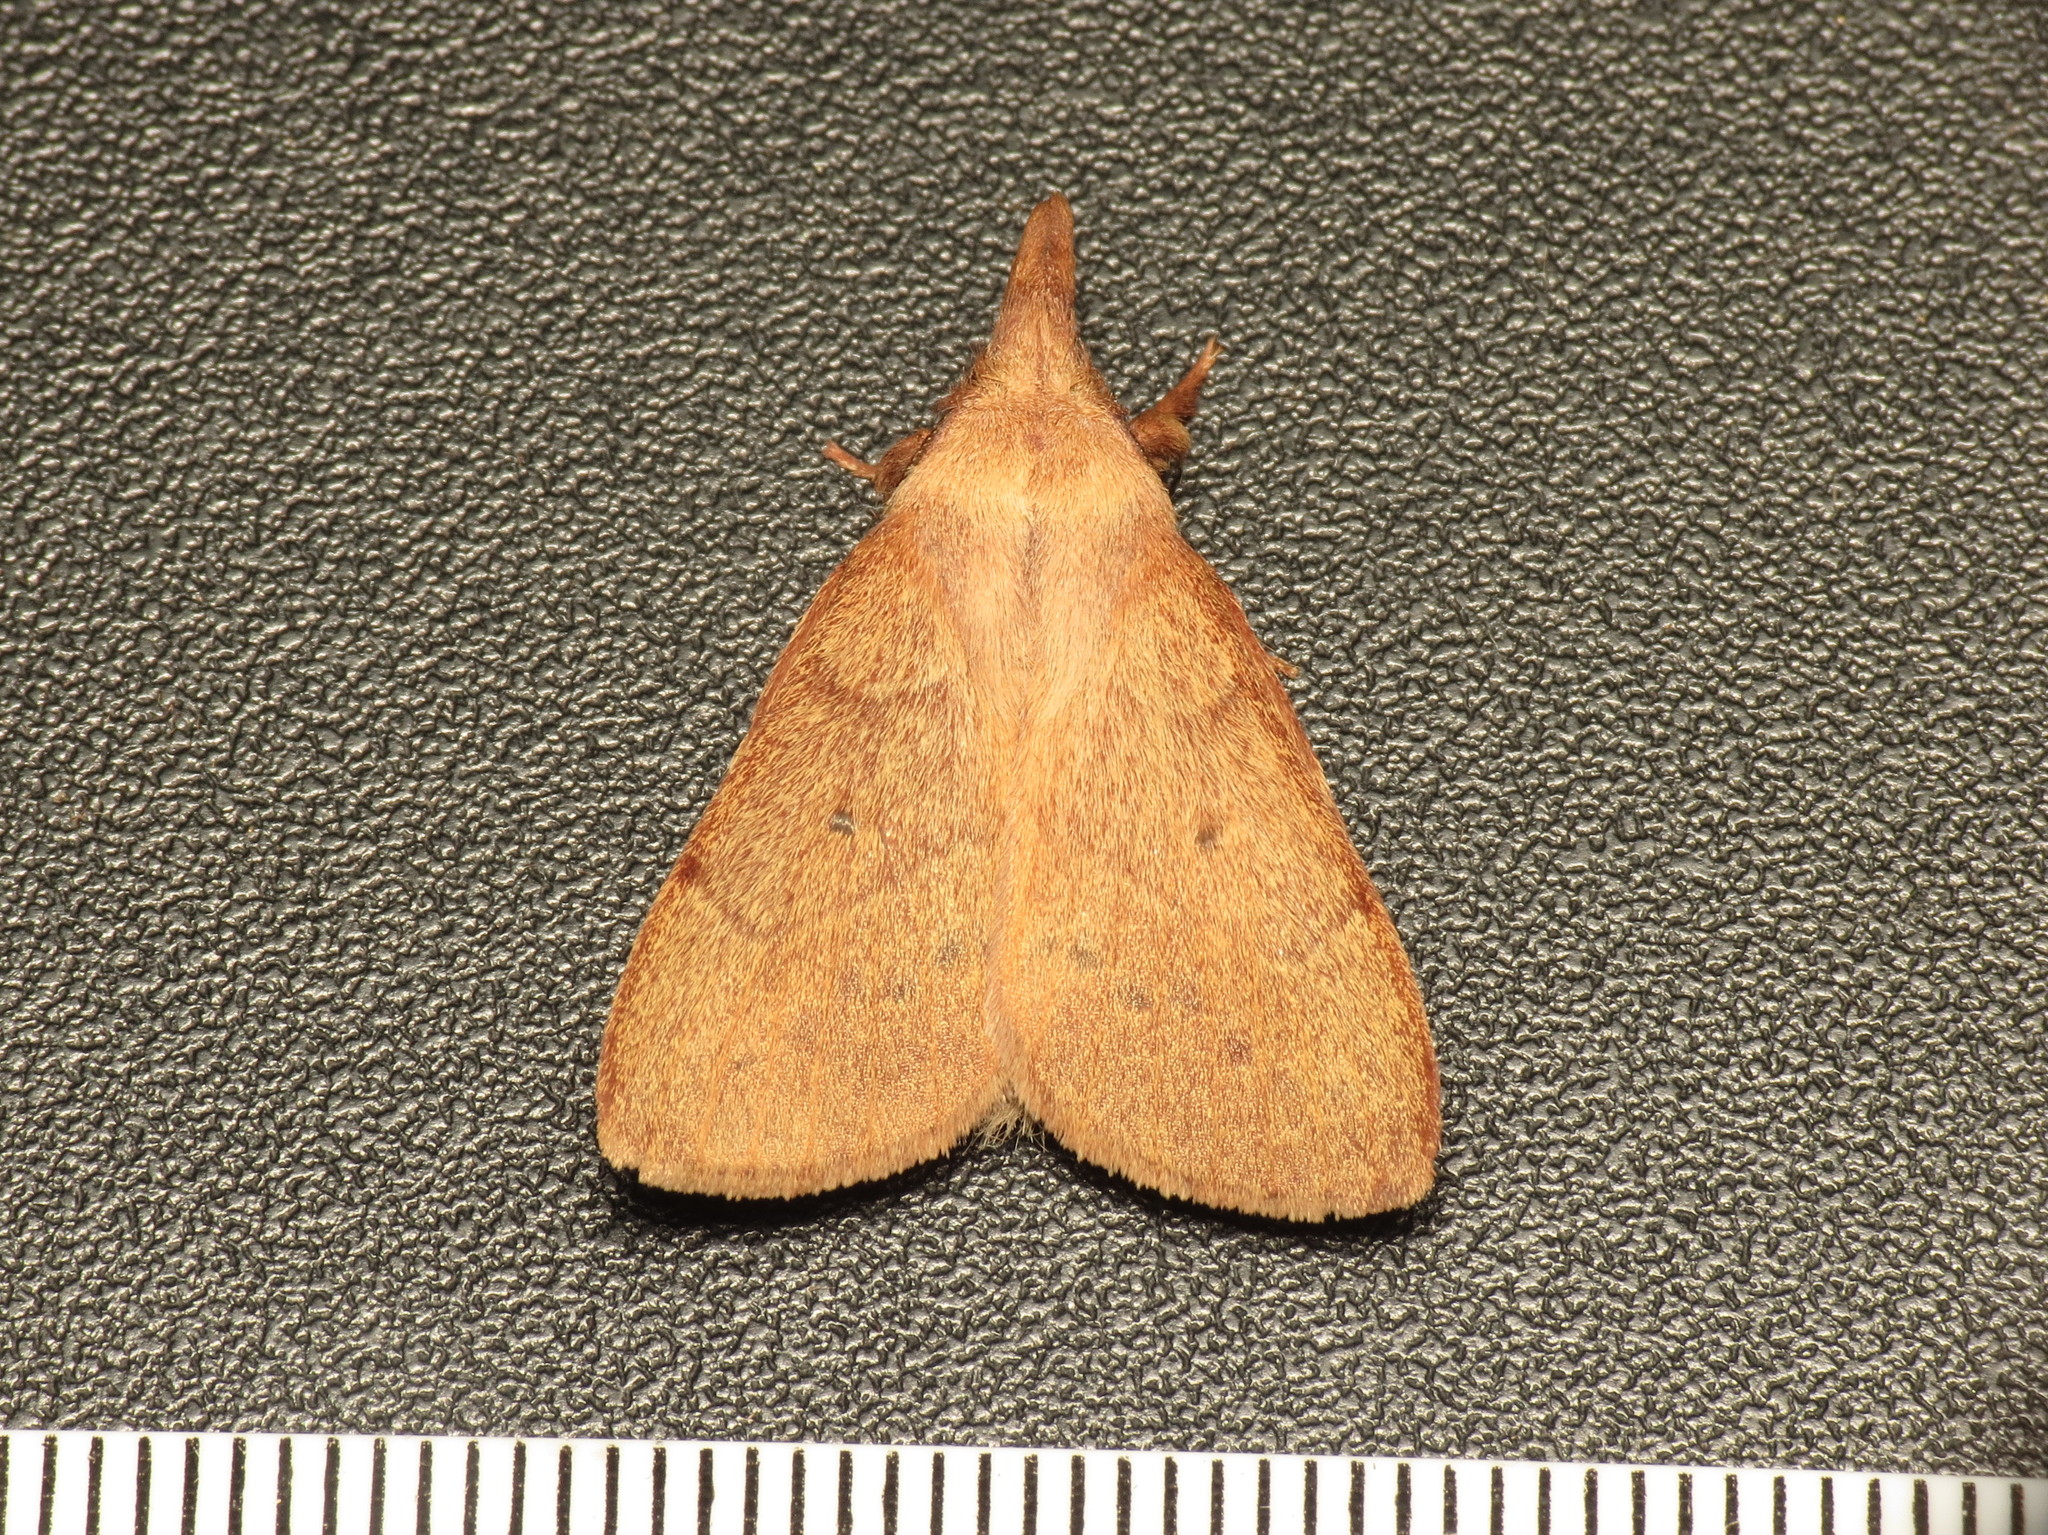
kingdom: Animalia
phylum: Arthropoda
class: Insecta
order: Lepidoptera
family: Lasiocampidae
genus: Pararguda
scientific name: Pararguda nasuta
